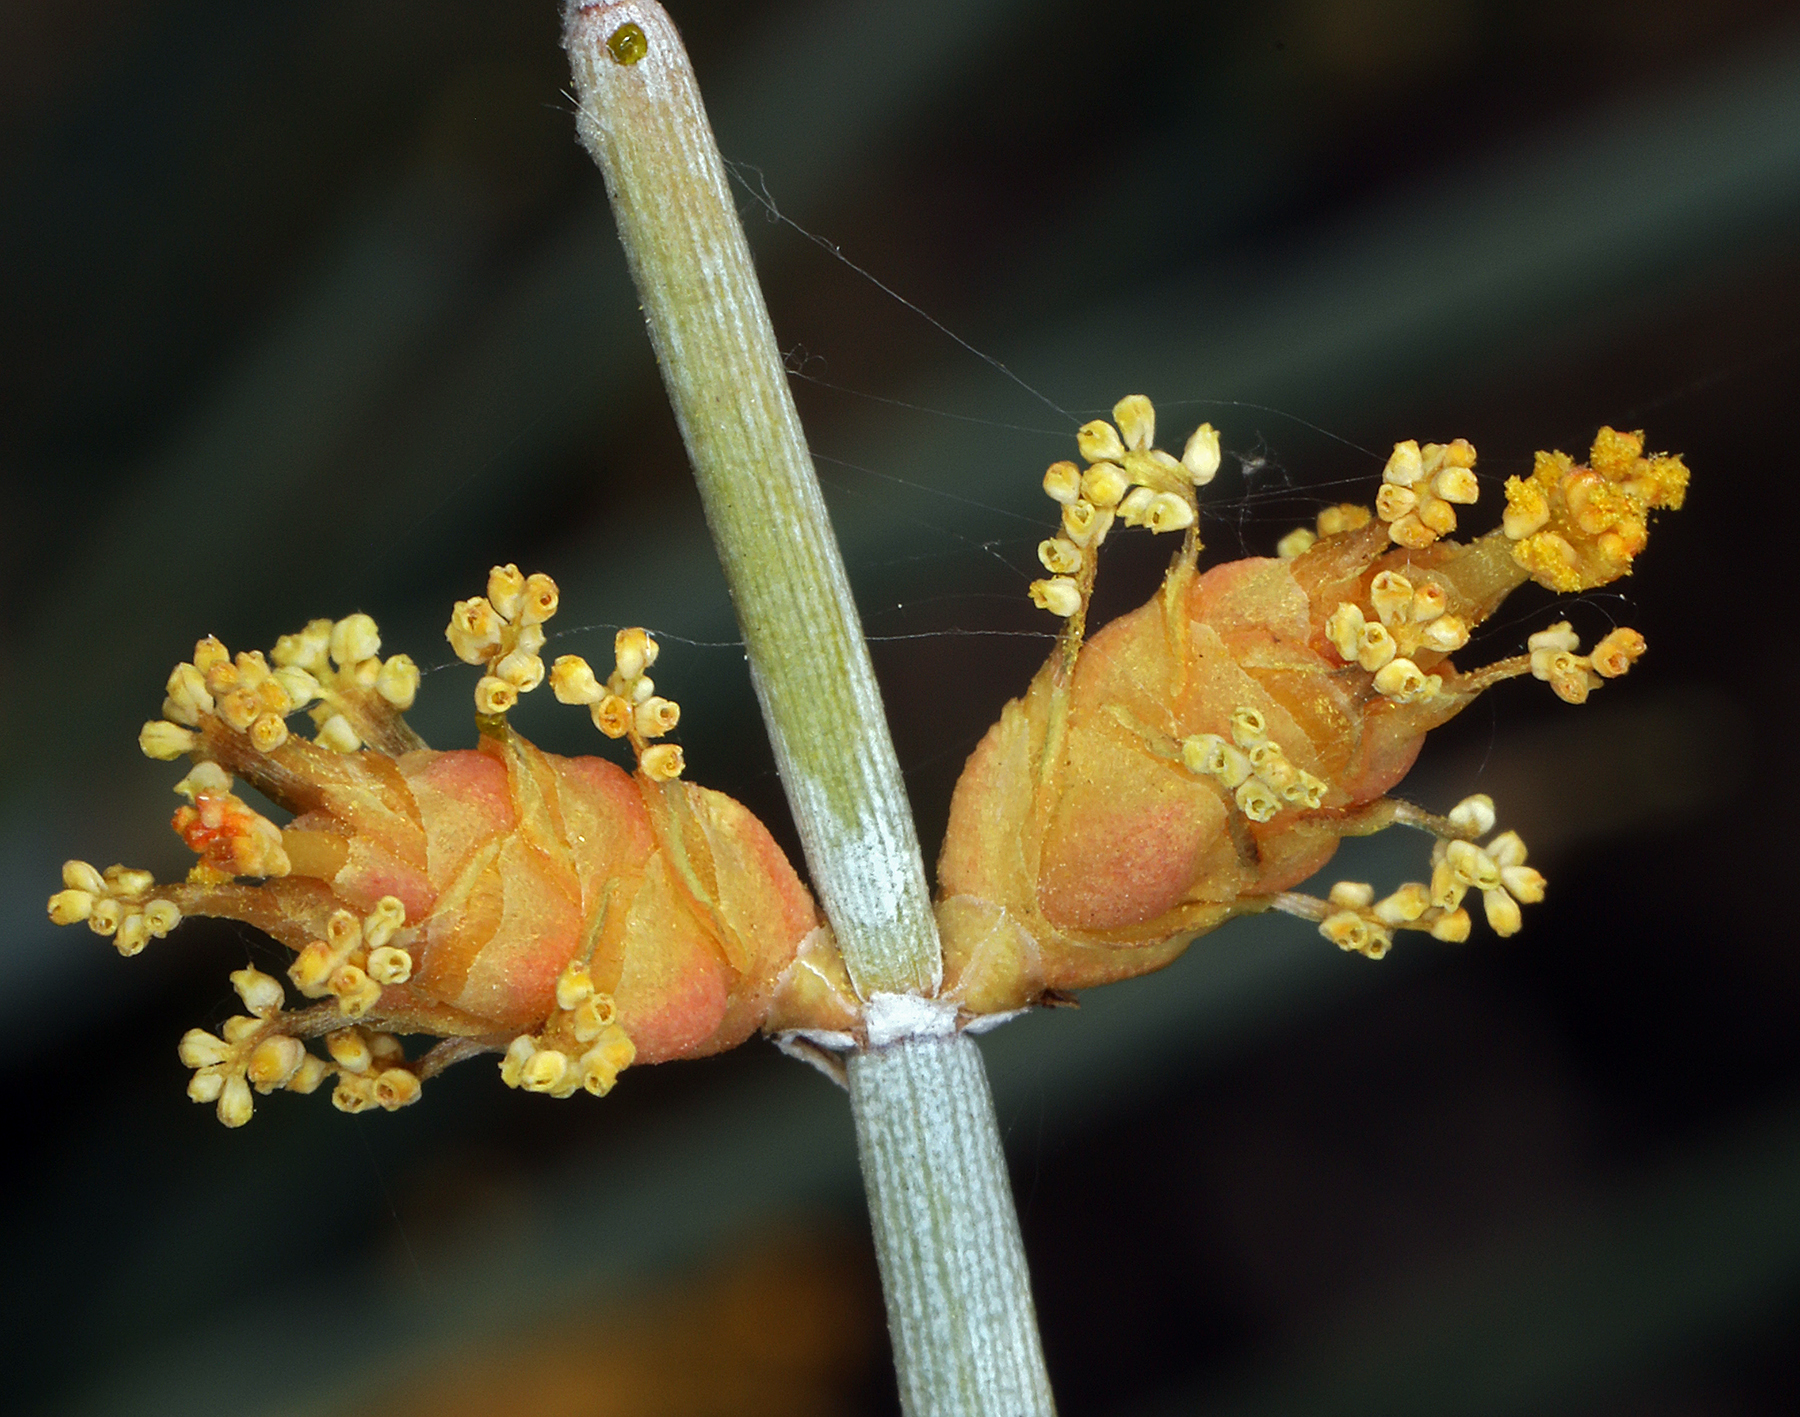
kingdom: Plantae
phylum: Tracheophyta
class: Gnetopsida
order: Ephedrales
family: Ephedraceae
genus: Ephedra
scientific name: Ephedra nevadensis
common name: Gray ephedra
